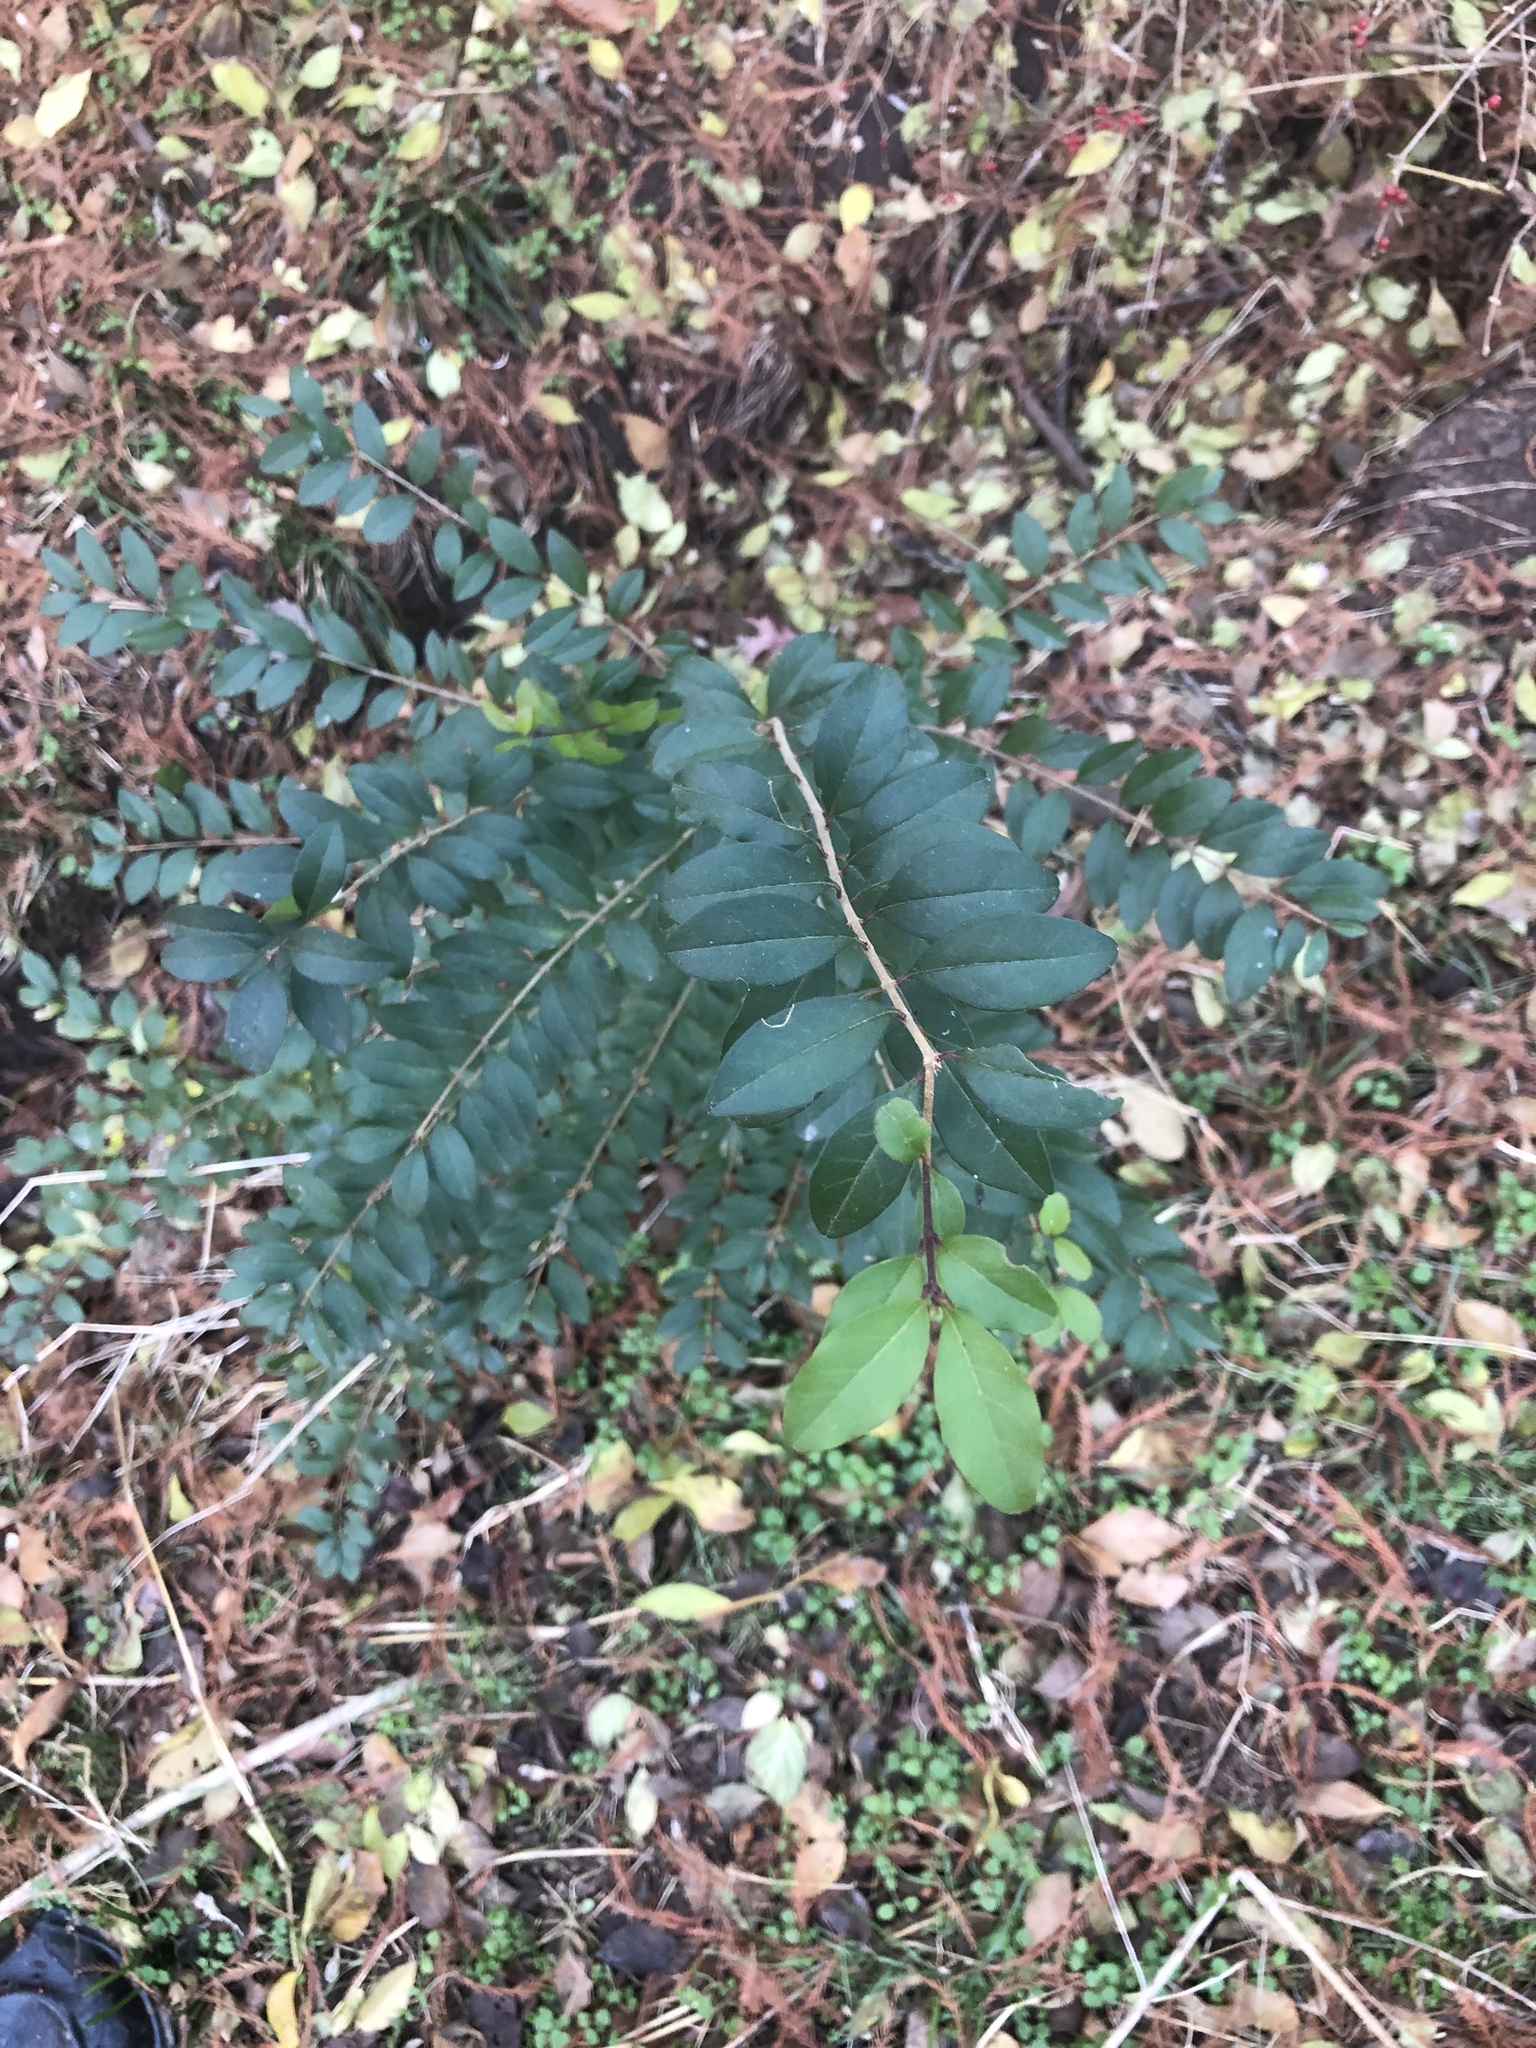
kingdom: Plantae
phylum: Tracheophyta
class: Magnoliopsida
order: Lamiales
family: Oleaceae
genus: Ligustrum
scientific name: Ligustrum sinense
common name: Chinese privet
